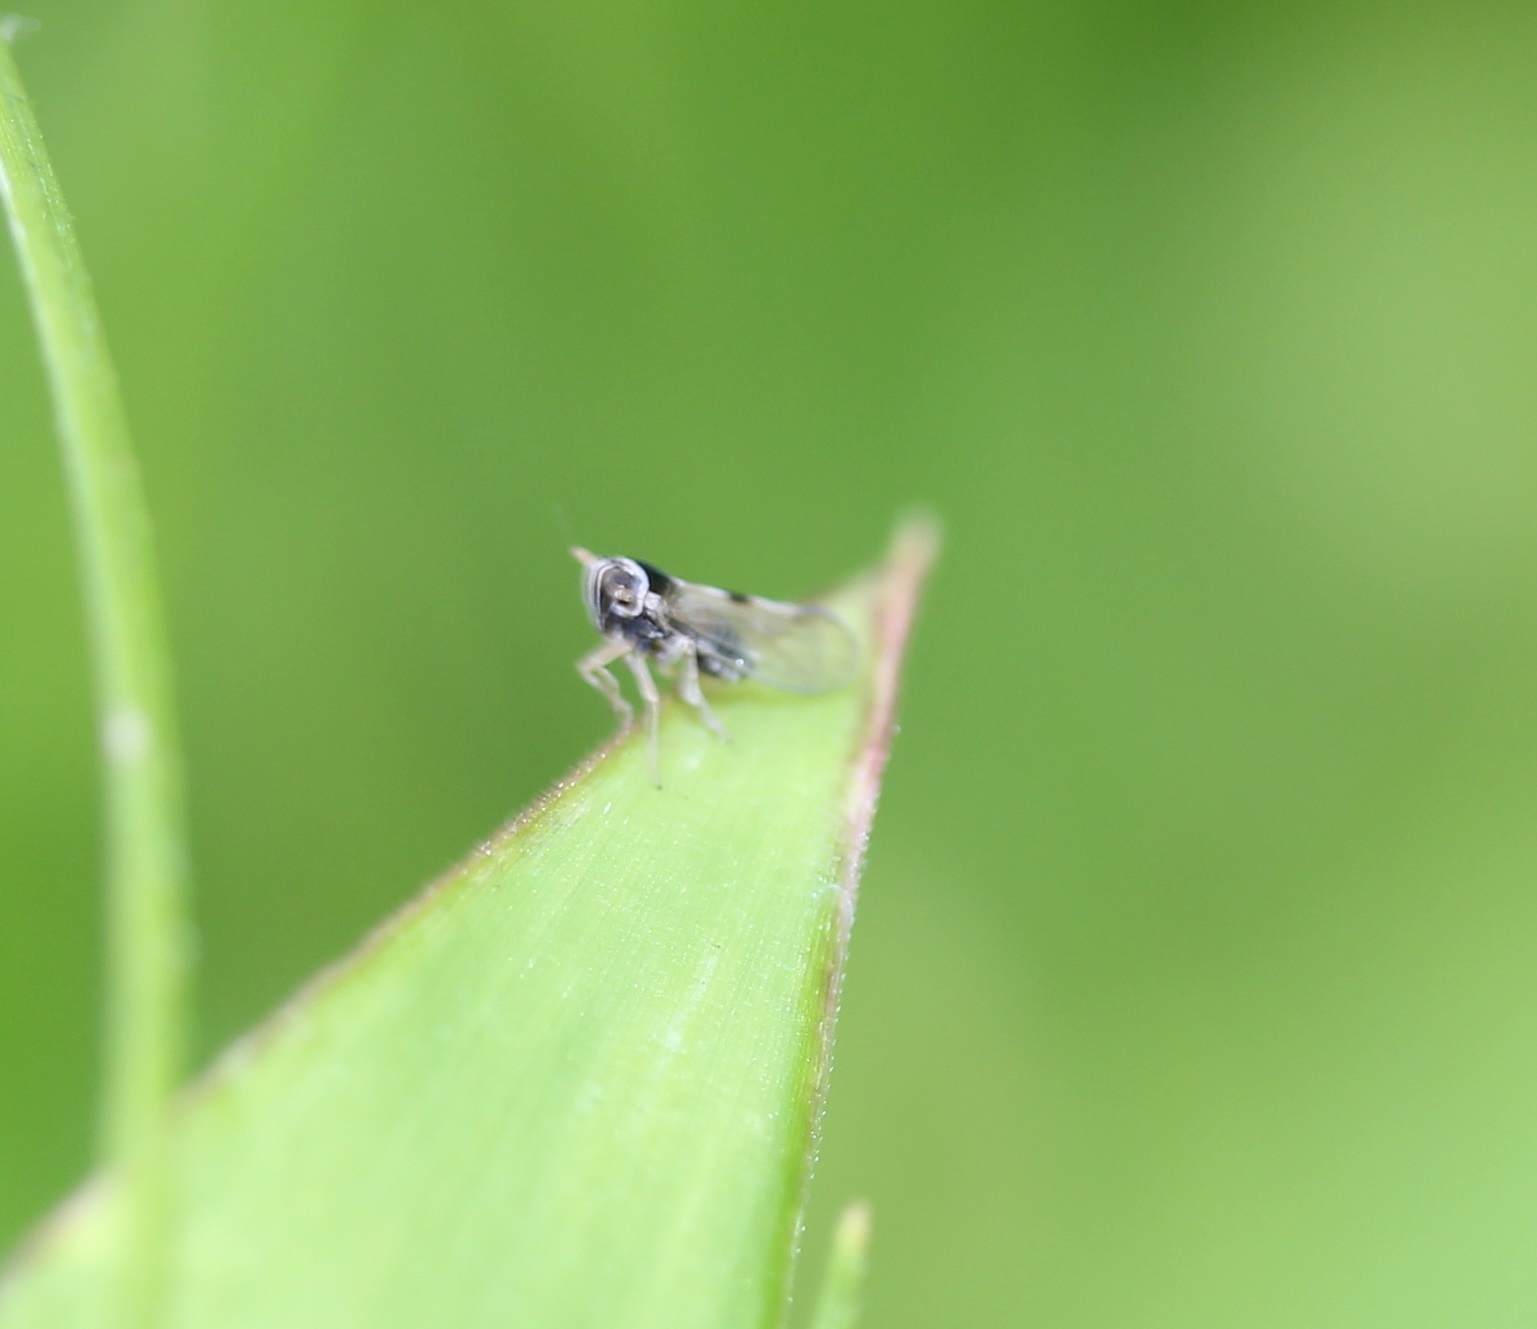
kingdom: Animalia
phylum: Arthropoda
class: Insecta
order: Hemiptera
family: Delphacidae
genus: Chionomus
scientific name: Chionomus
